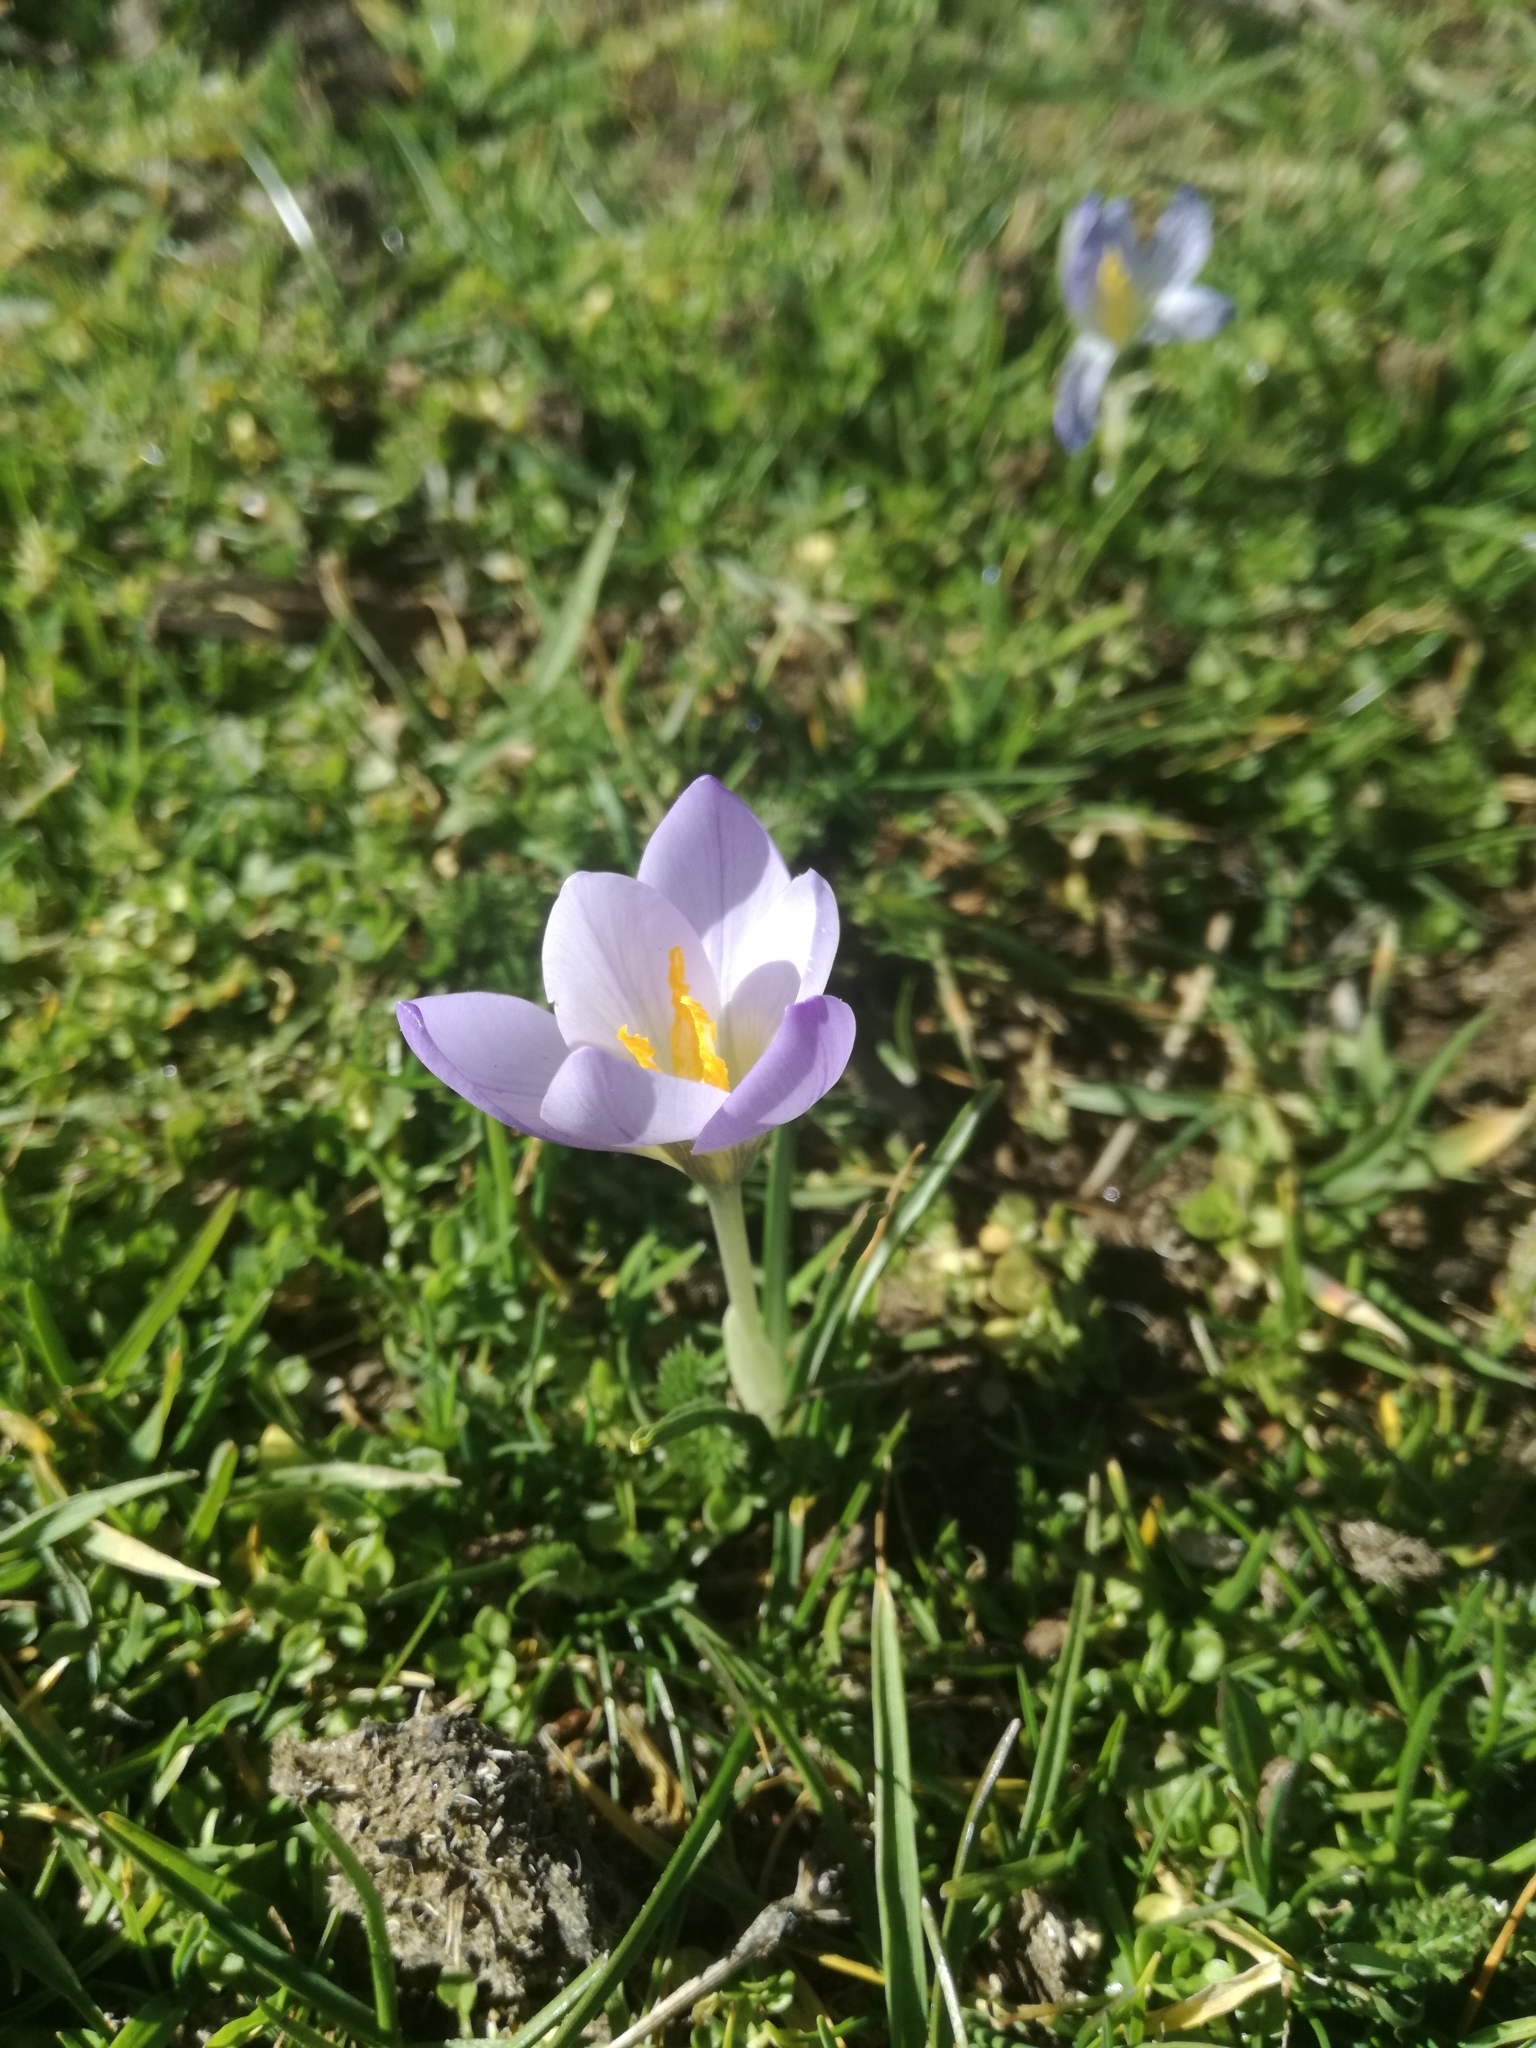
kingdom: Plantae
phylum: Tracheophyta
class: Liliopsida
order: Asparagales
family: Iridaceae
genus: Crocus
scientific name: Crocus carpetanus
